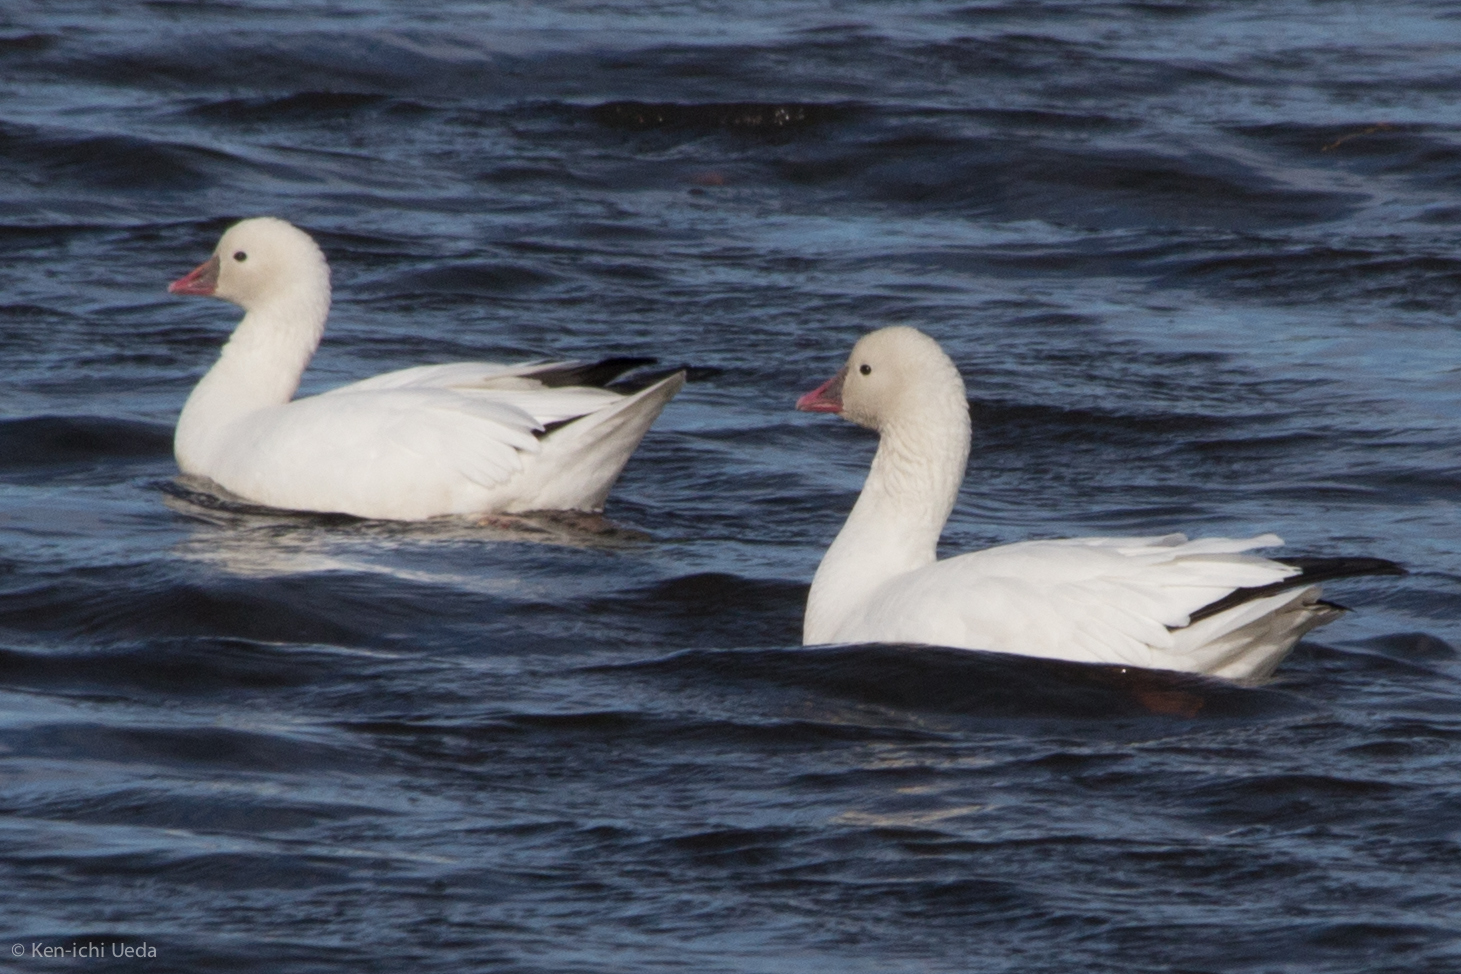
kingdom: Animalia
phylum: Chordata
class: Aves
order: Anseriformes
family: Anatidae
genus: Anser
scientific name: Anser rossii
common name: Ross's goose
